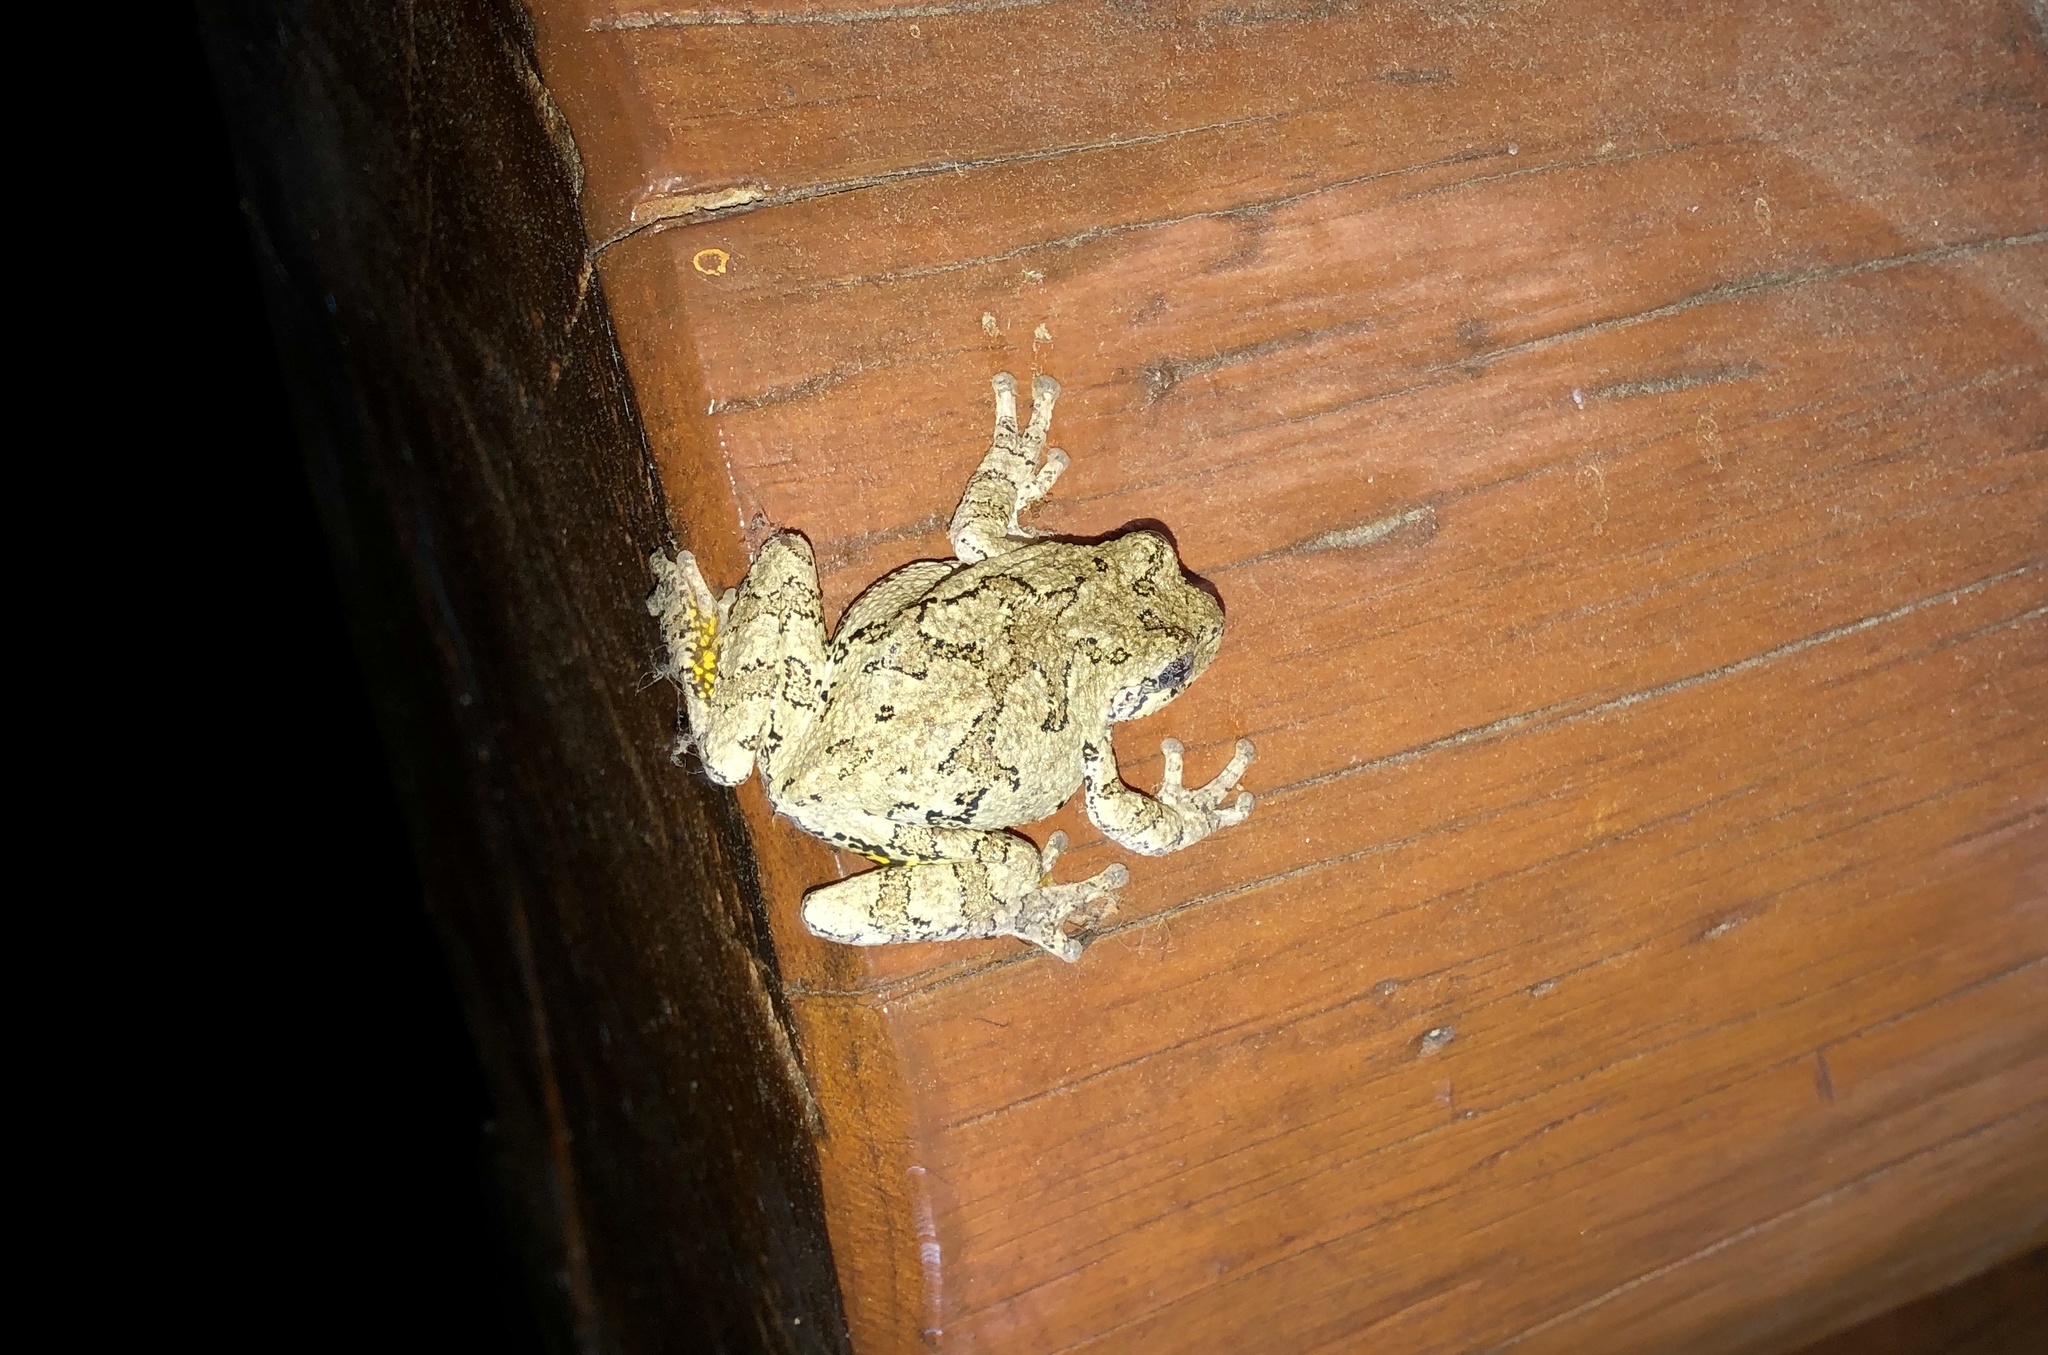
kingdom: Animalia
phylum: Chordata
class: Amphibia
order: Anura
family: Hylidae
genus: Dryophytes
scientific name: Dryophytes versicolor
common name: Gray treefrog
